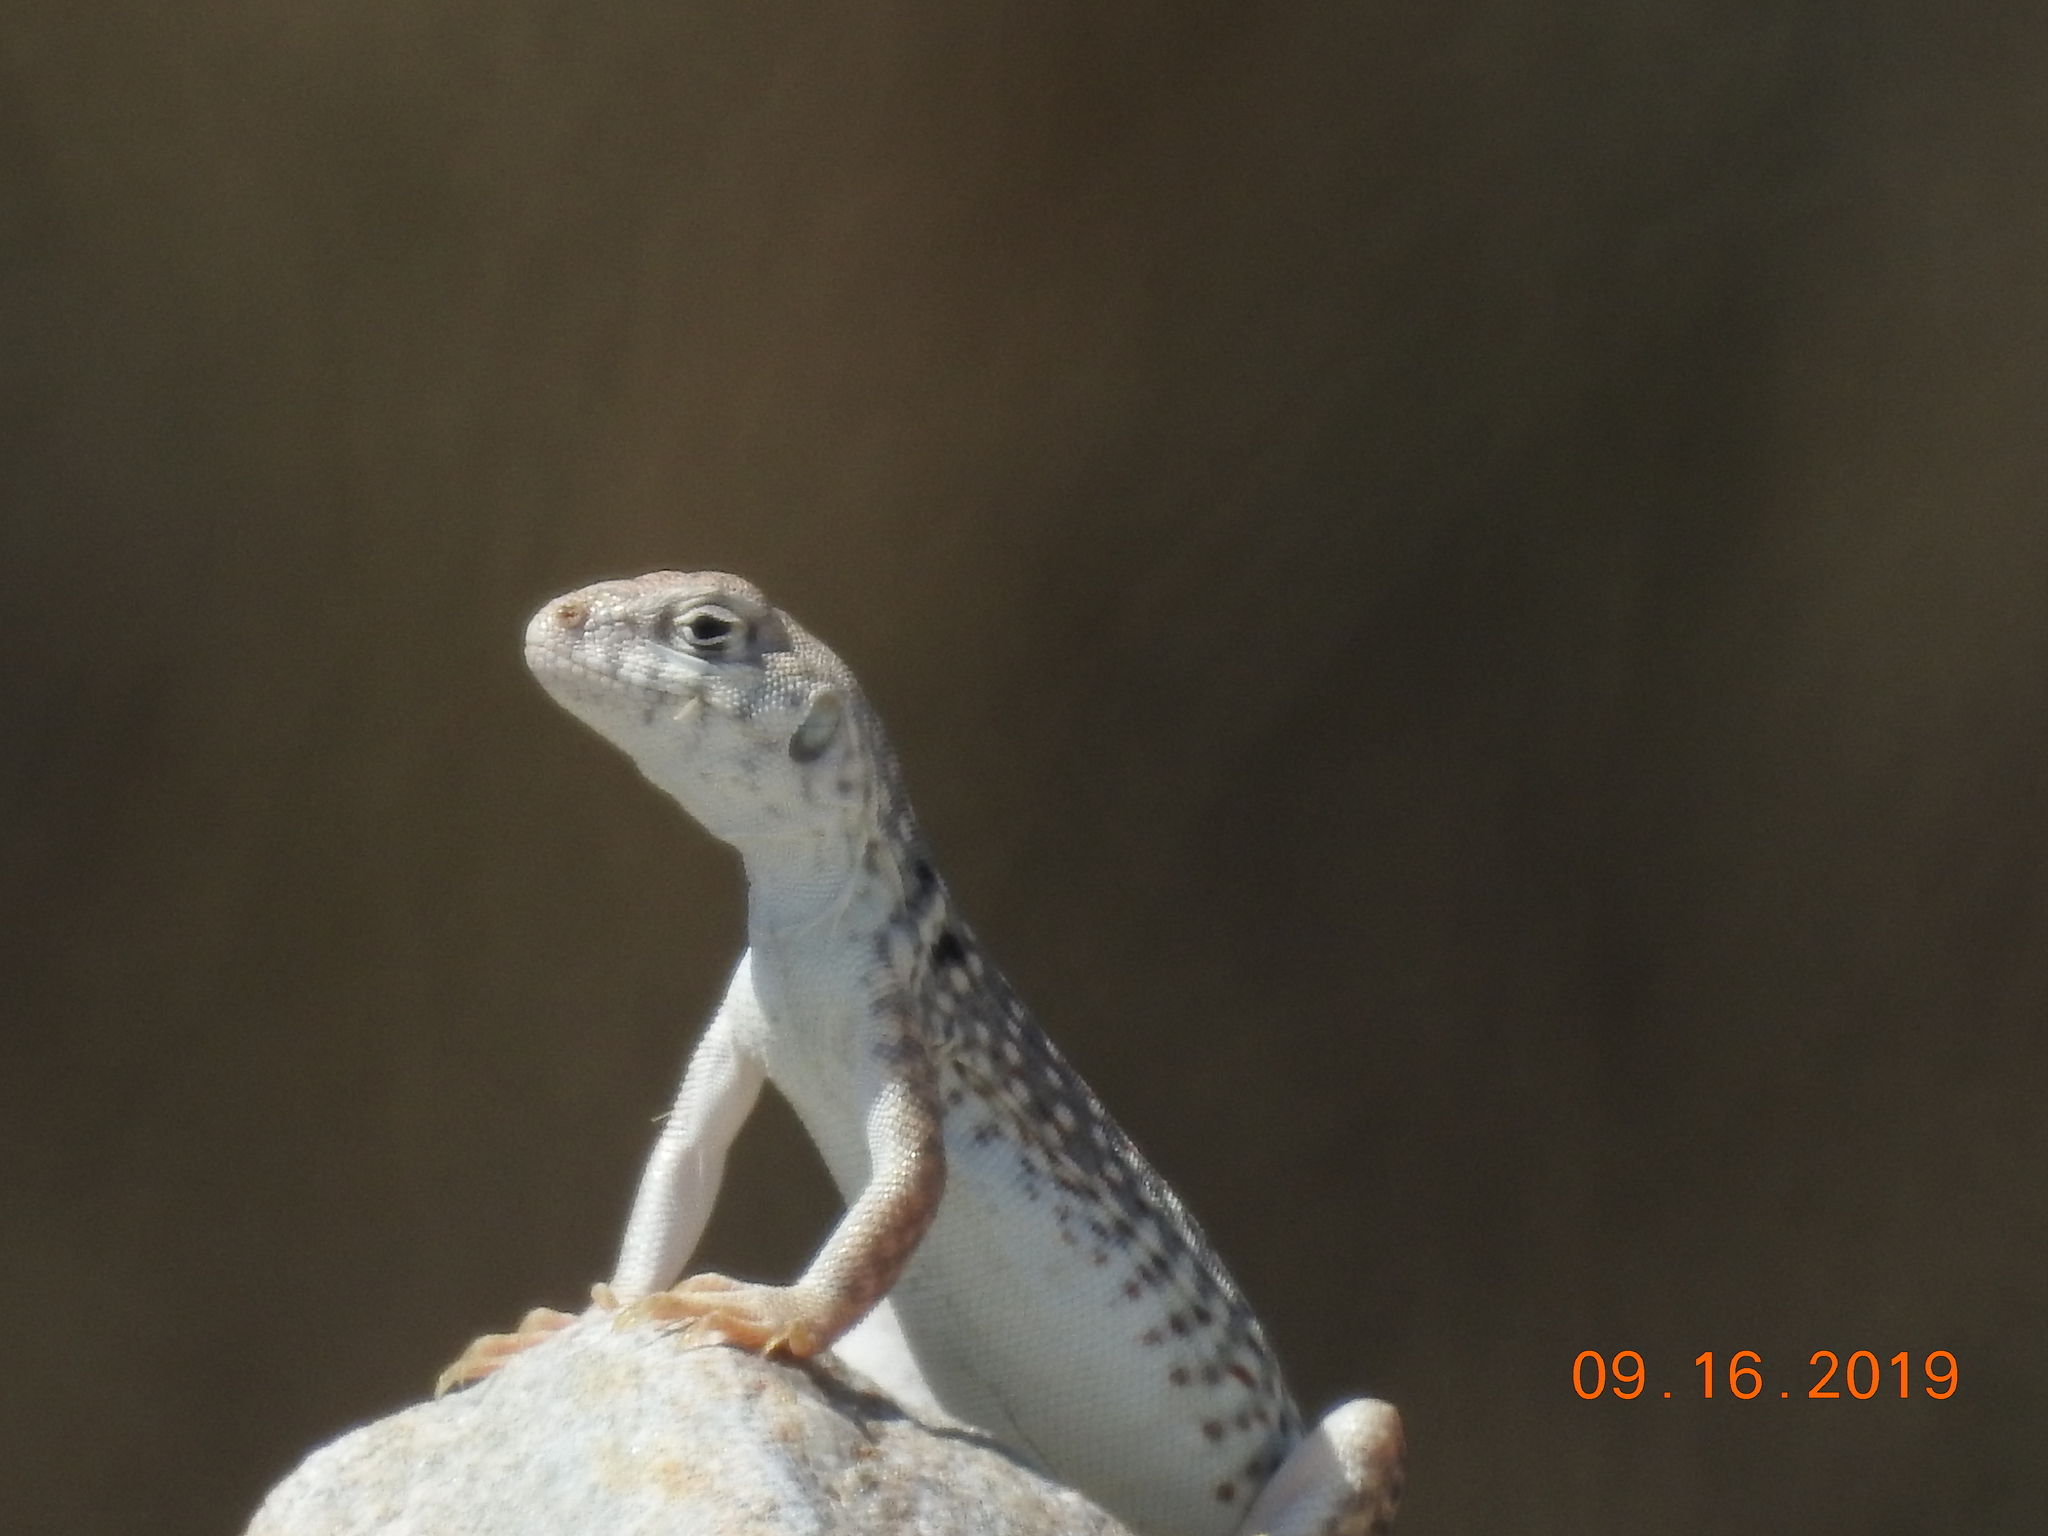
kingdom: Animalia
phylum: Chordata
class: Squamata
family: Iguanidae
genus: Dipsosaurus
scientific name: Dipsosaurus dorsalis
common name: Desert iguana
